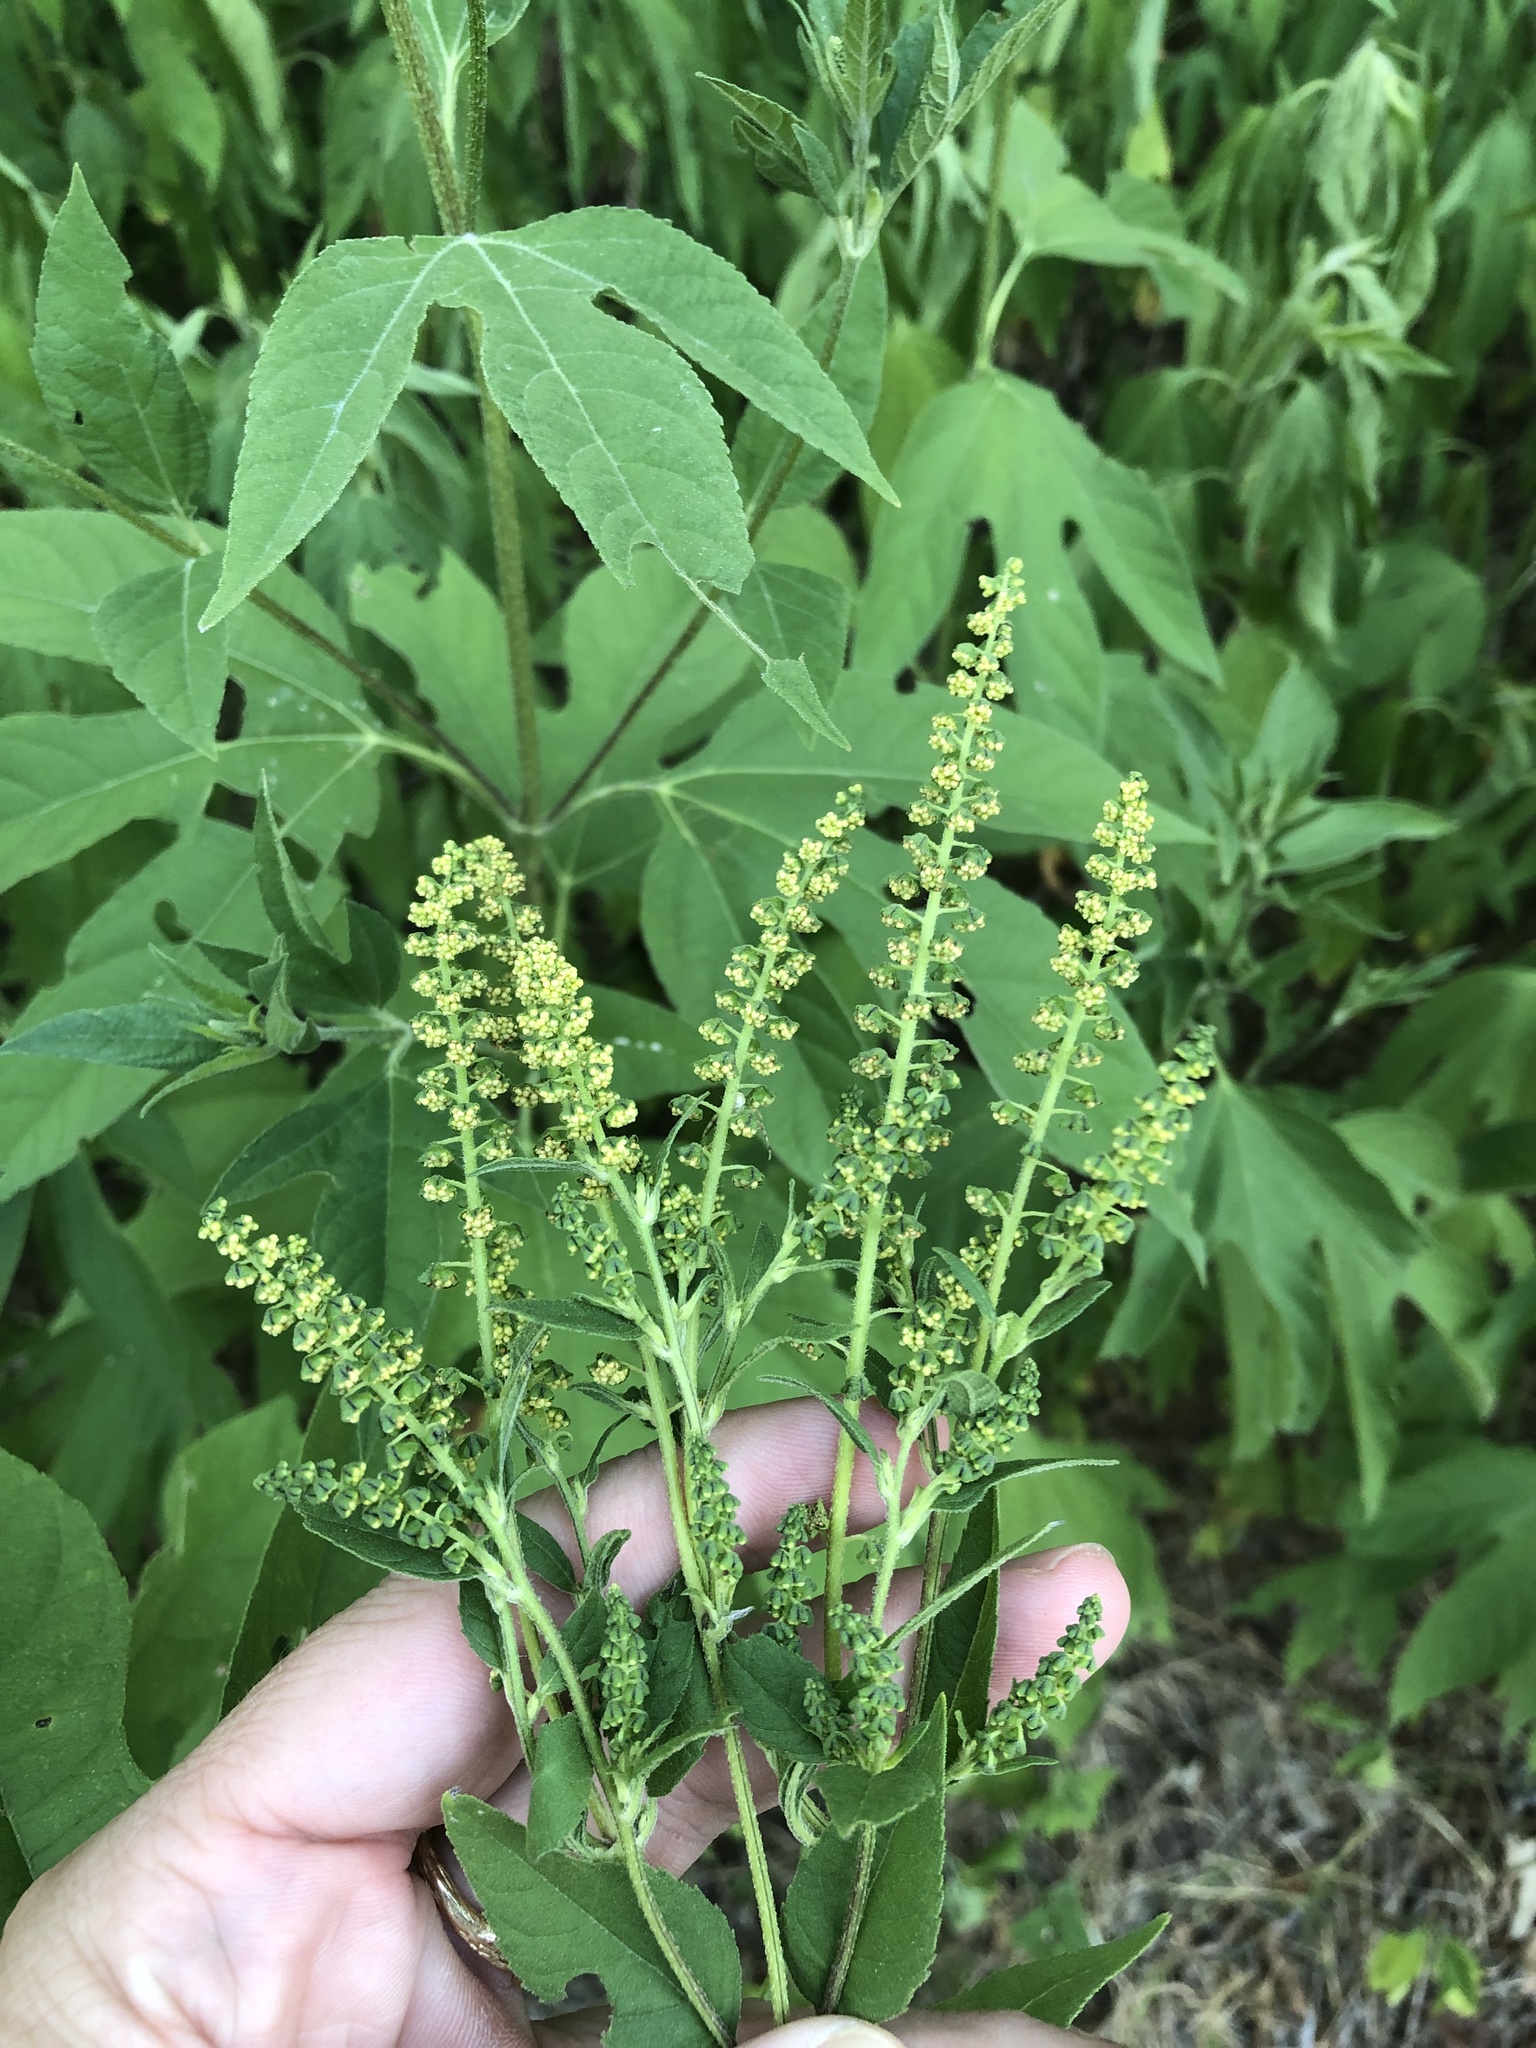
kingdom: Plantae
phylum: Tracheophyta
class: Magnoliopsida
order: Asterales
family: Asteraceae
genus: Ambrosia
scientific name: Ambrosia trifida
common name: Giant ragweed
